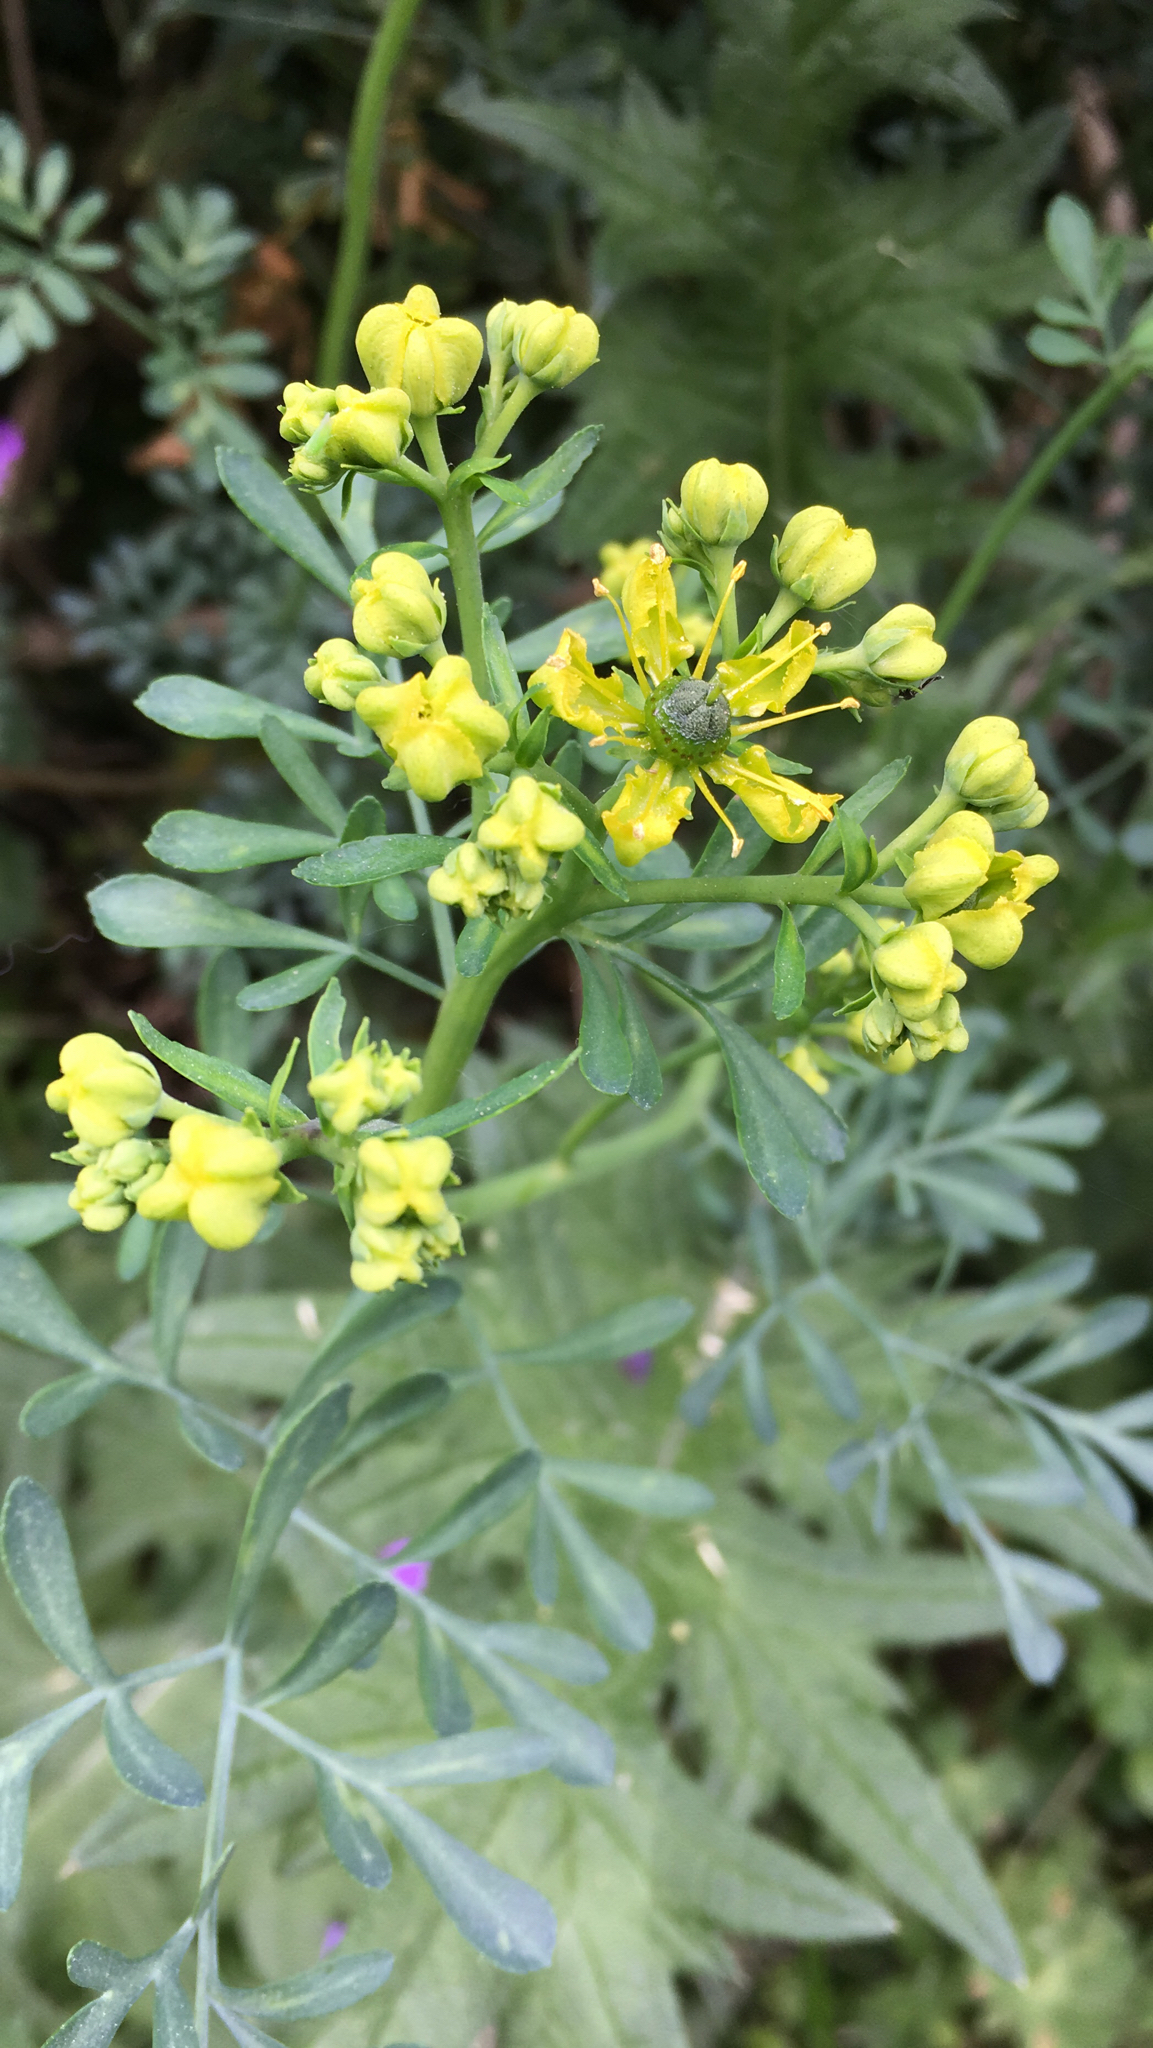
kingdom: Plantae
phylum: Tracheophyta
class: Magnoliopsida
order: Sapindales
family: Rutaceae
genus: Ruta
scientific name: Ruta graveolens
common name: Common rue
